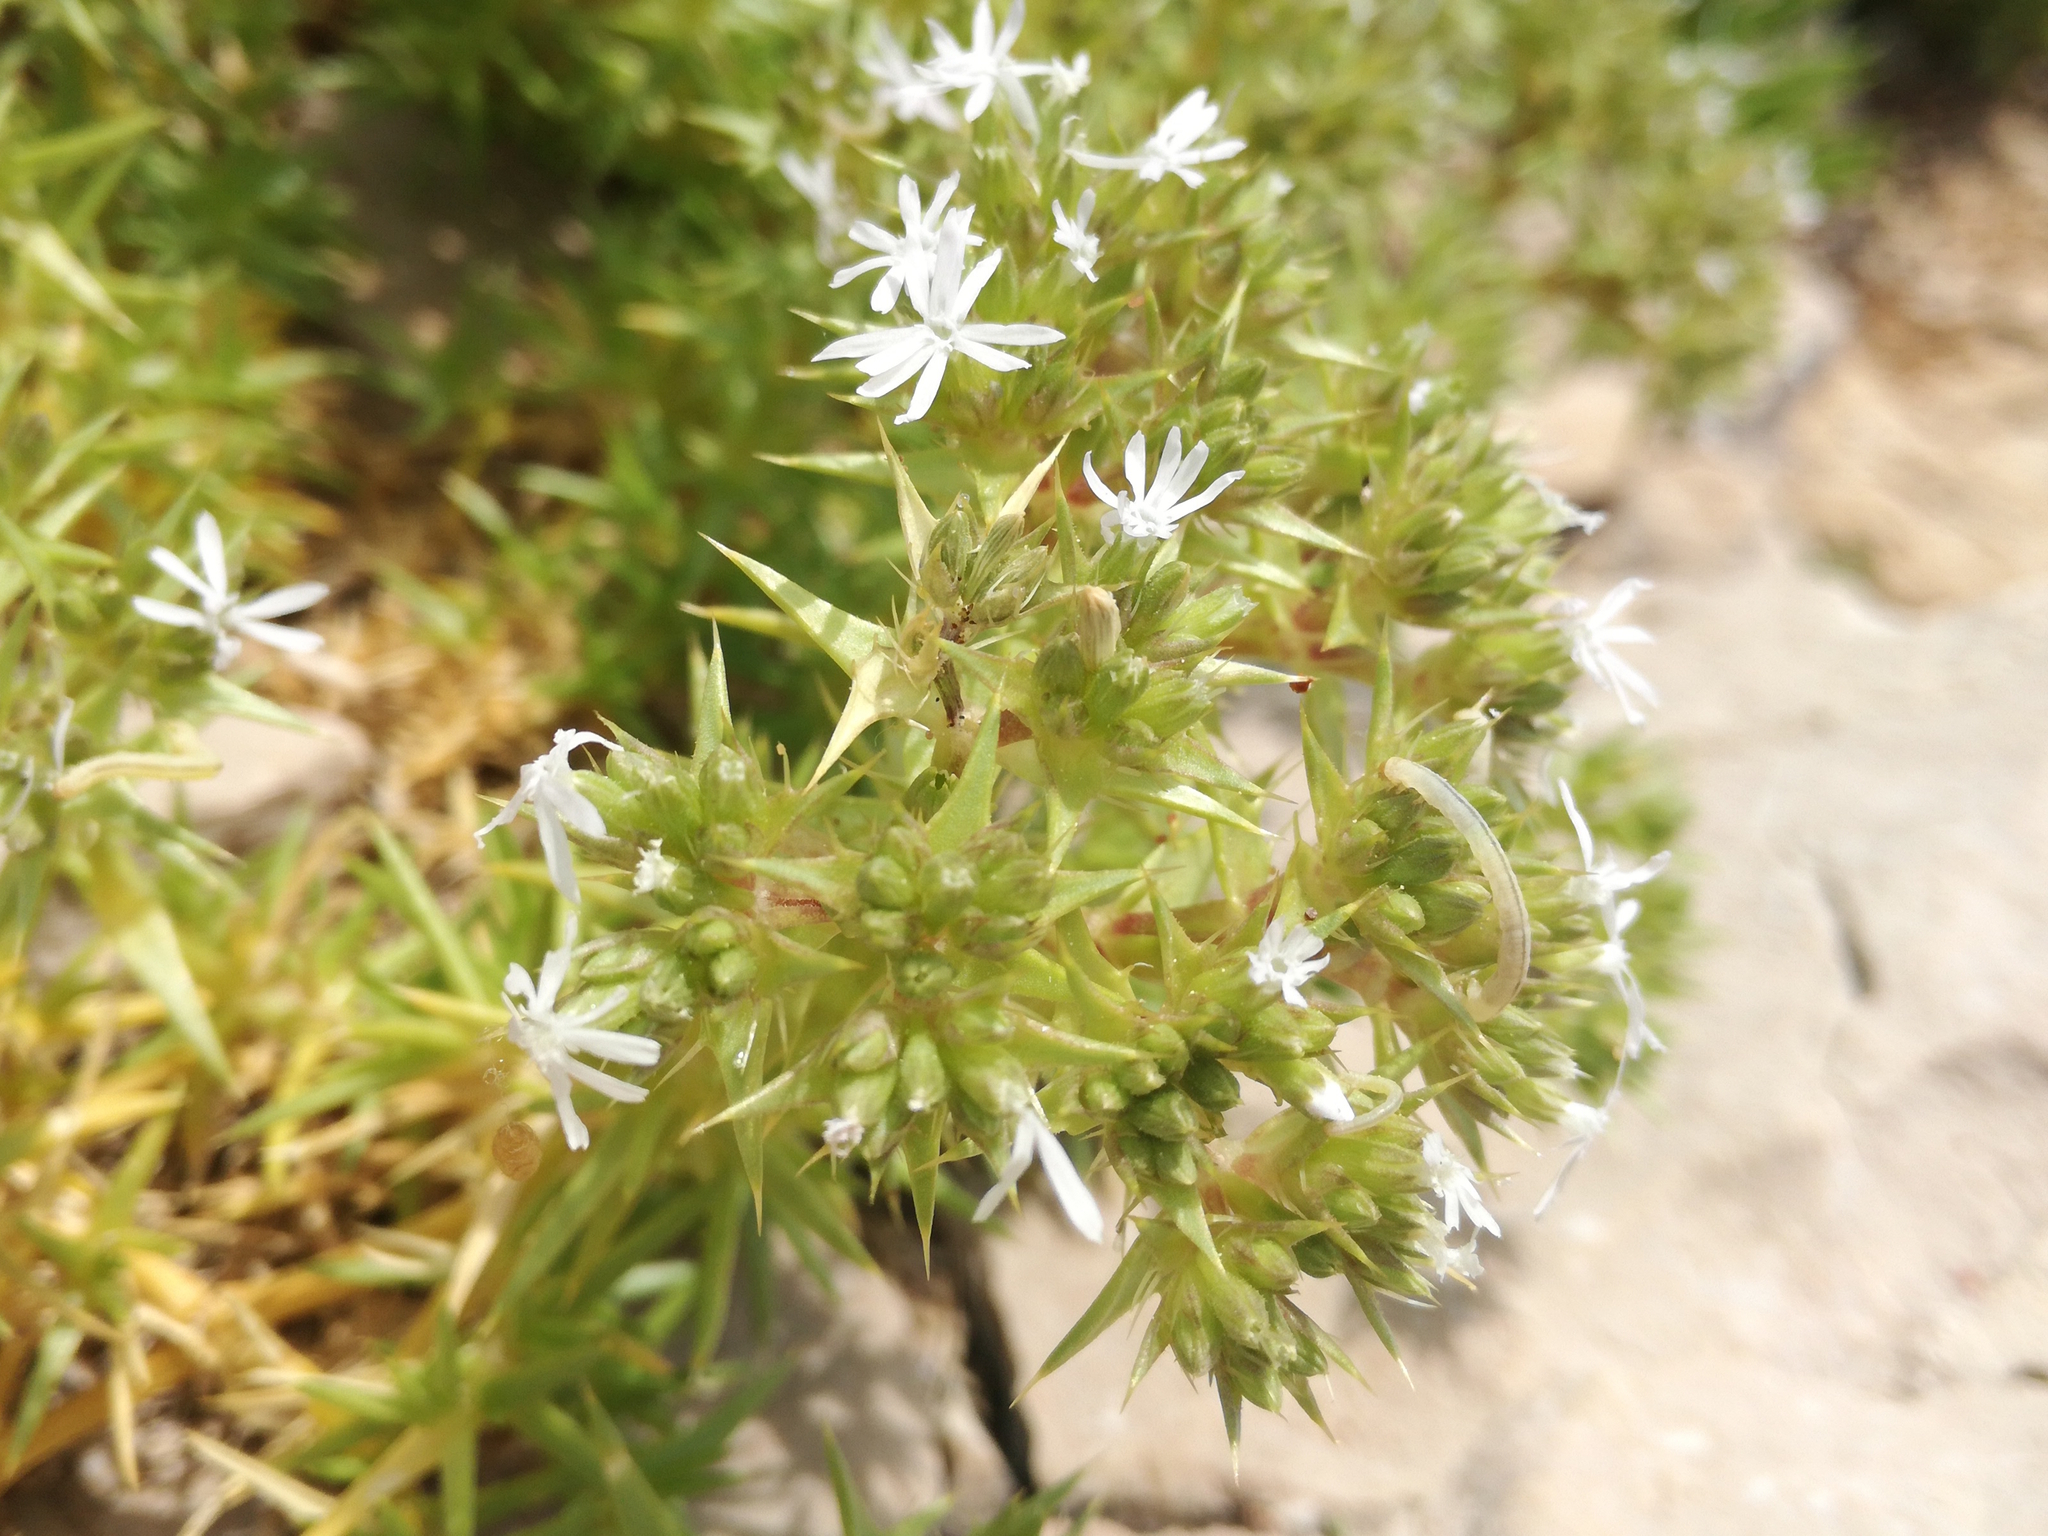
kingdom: Plantae
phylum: Tracheophyta
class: Magnoliopsida
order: Caryophyllales
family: Caryophyllaceae
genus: Drypis
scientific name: Drypis spinosa
